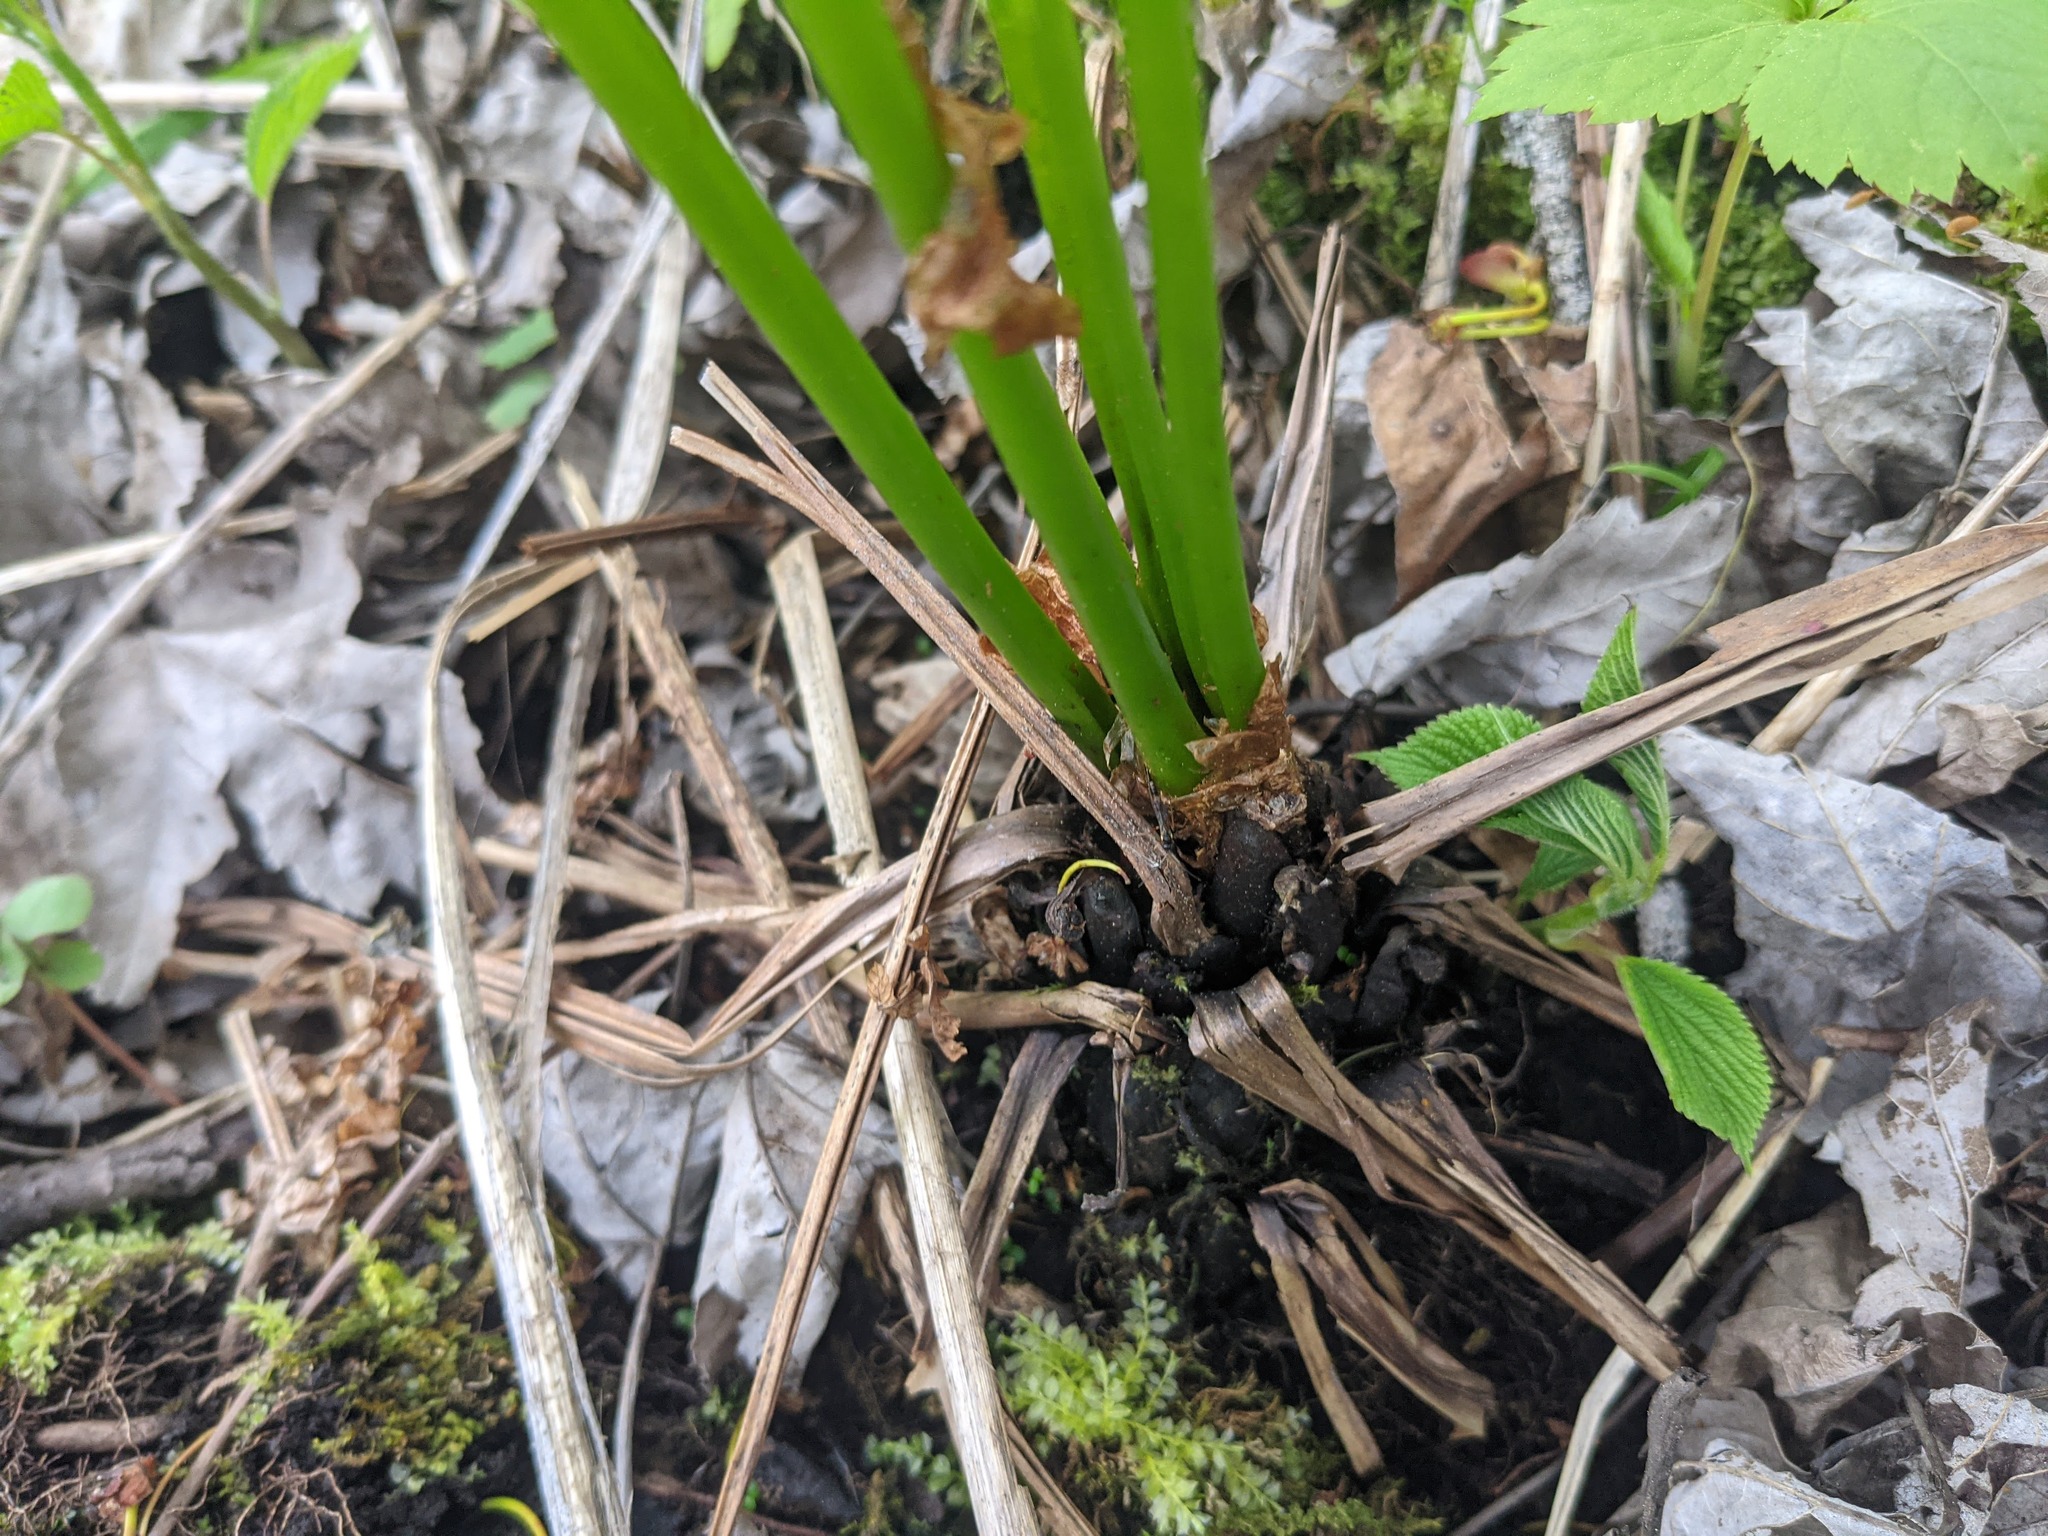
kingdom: Plantae
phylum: Tracheophyta
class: Polypodiopsida
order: Polypodiales
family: Onocleaceae
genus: Matteuccia
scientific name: Matteuccia struthiopteris
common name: Ostrich fern
